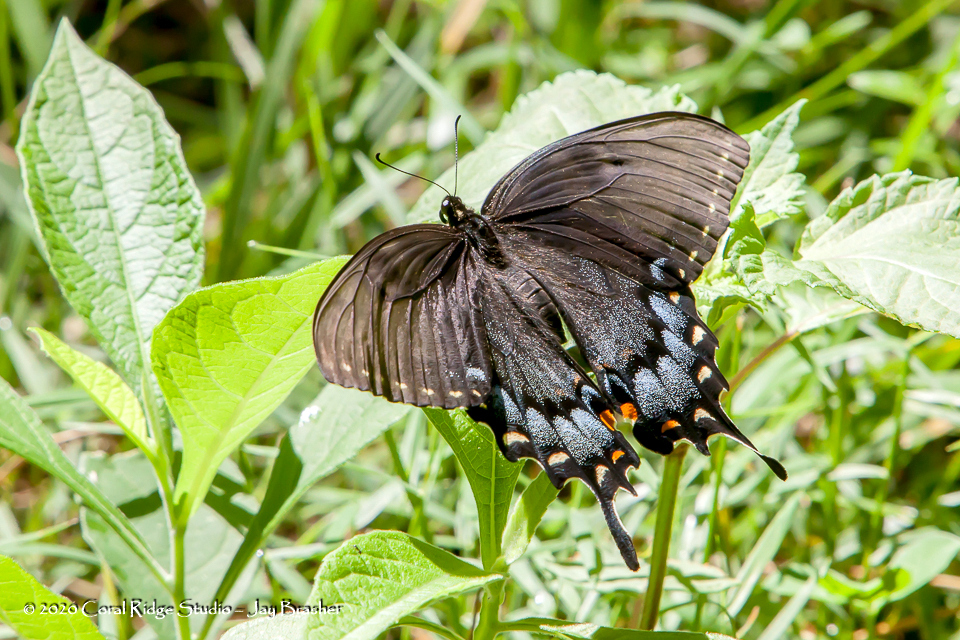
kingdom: Animalia
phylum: Arthropoda
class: Insecta
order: Lepidoptera
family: Papilionidae
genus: Papilio
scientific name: Papilio glaucus
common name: Tiger swallowtail
